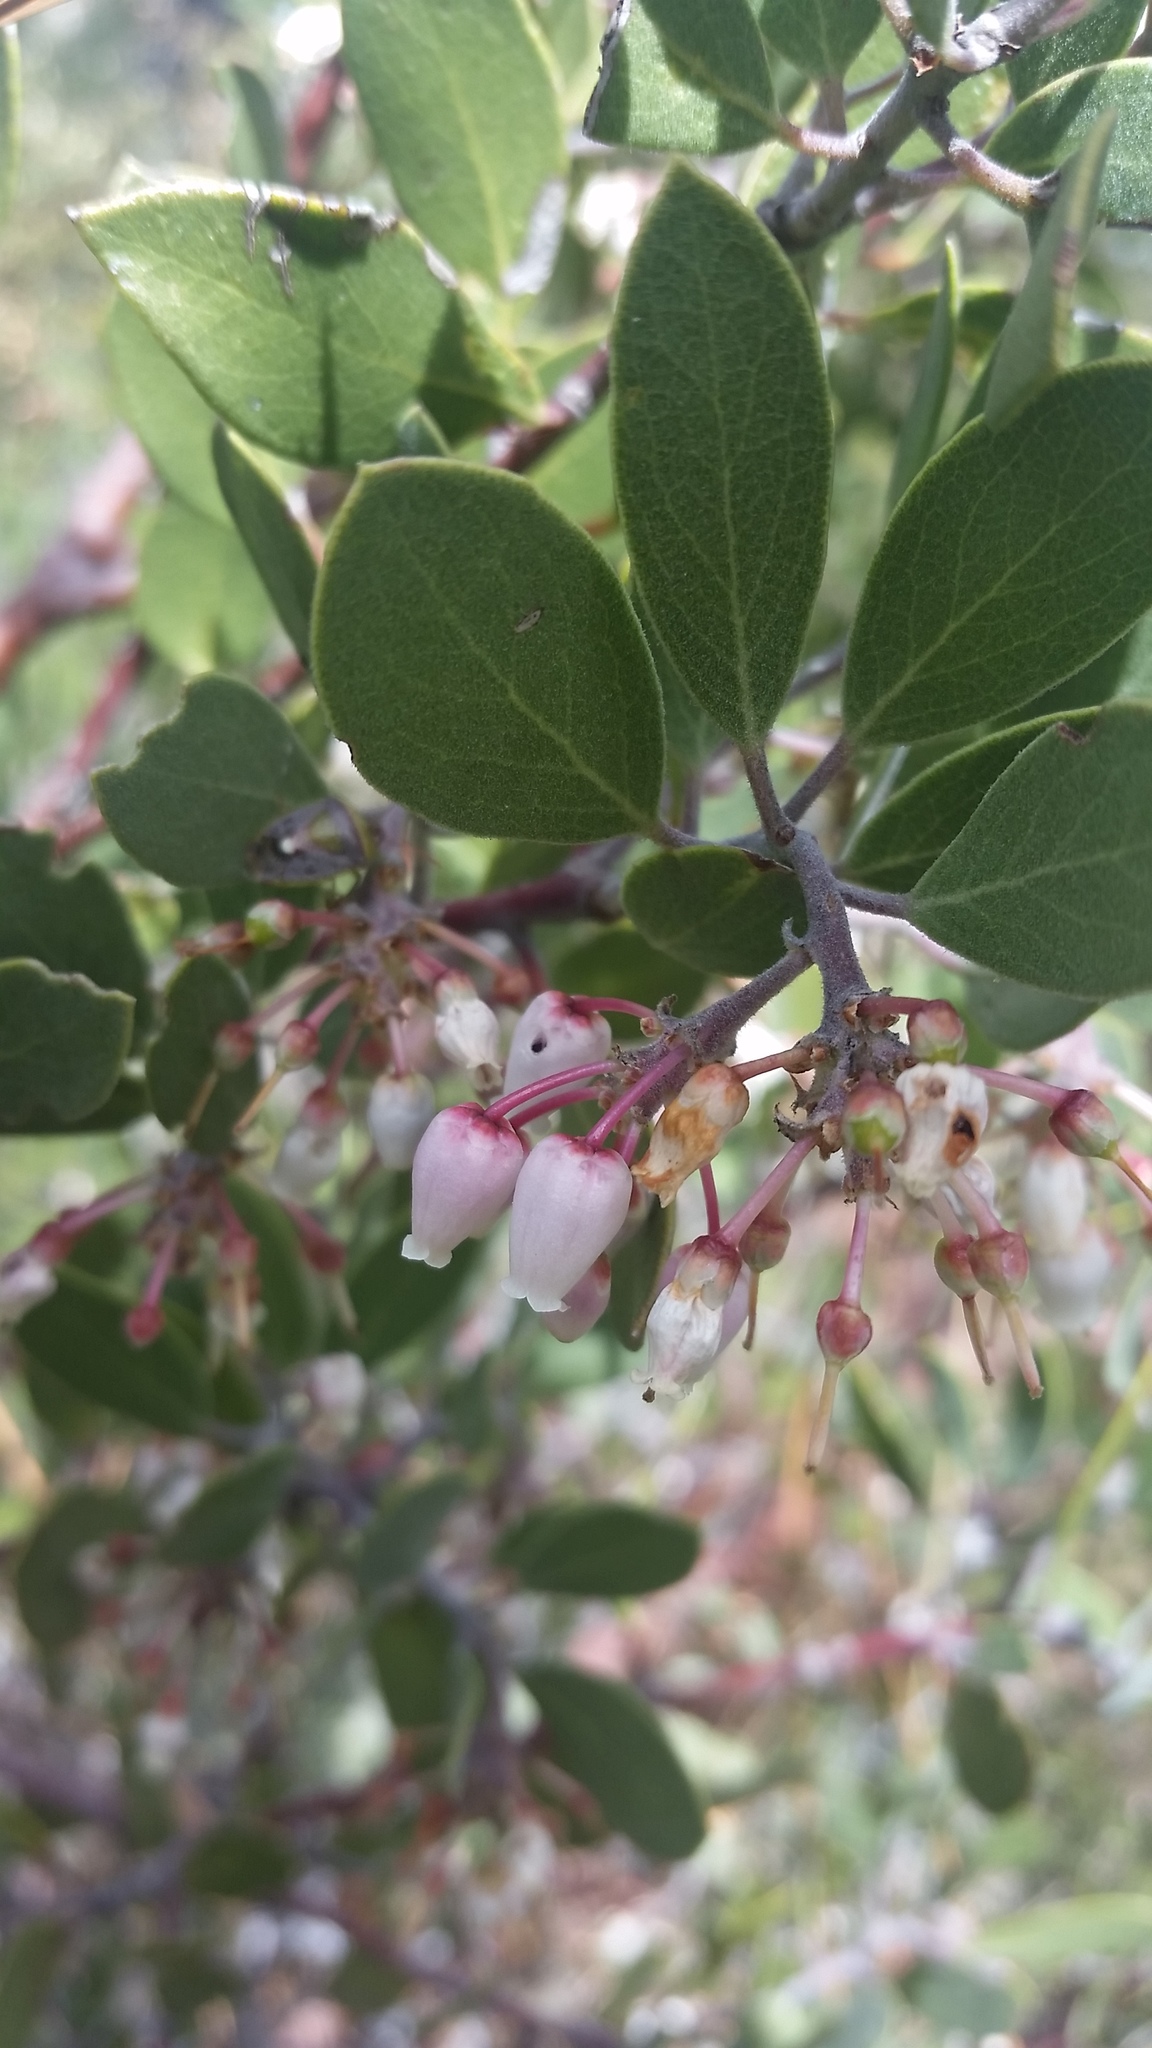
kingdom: Plantae
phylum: Tracheophyta
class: Magnoliopsida
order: Ericales
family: Ericaceae
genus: Arctostaphylos
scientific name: Arctostaphylos pungens
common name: Mexican manzanita
